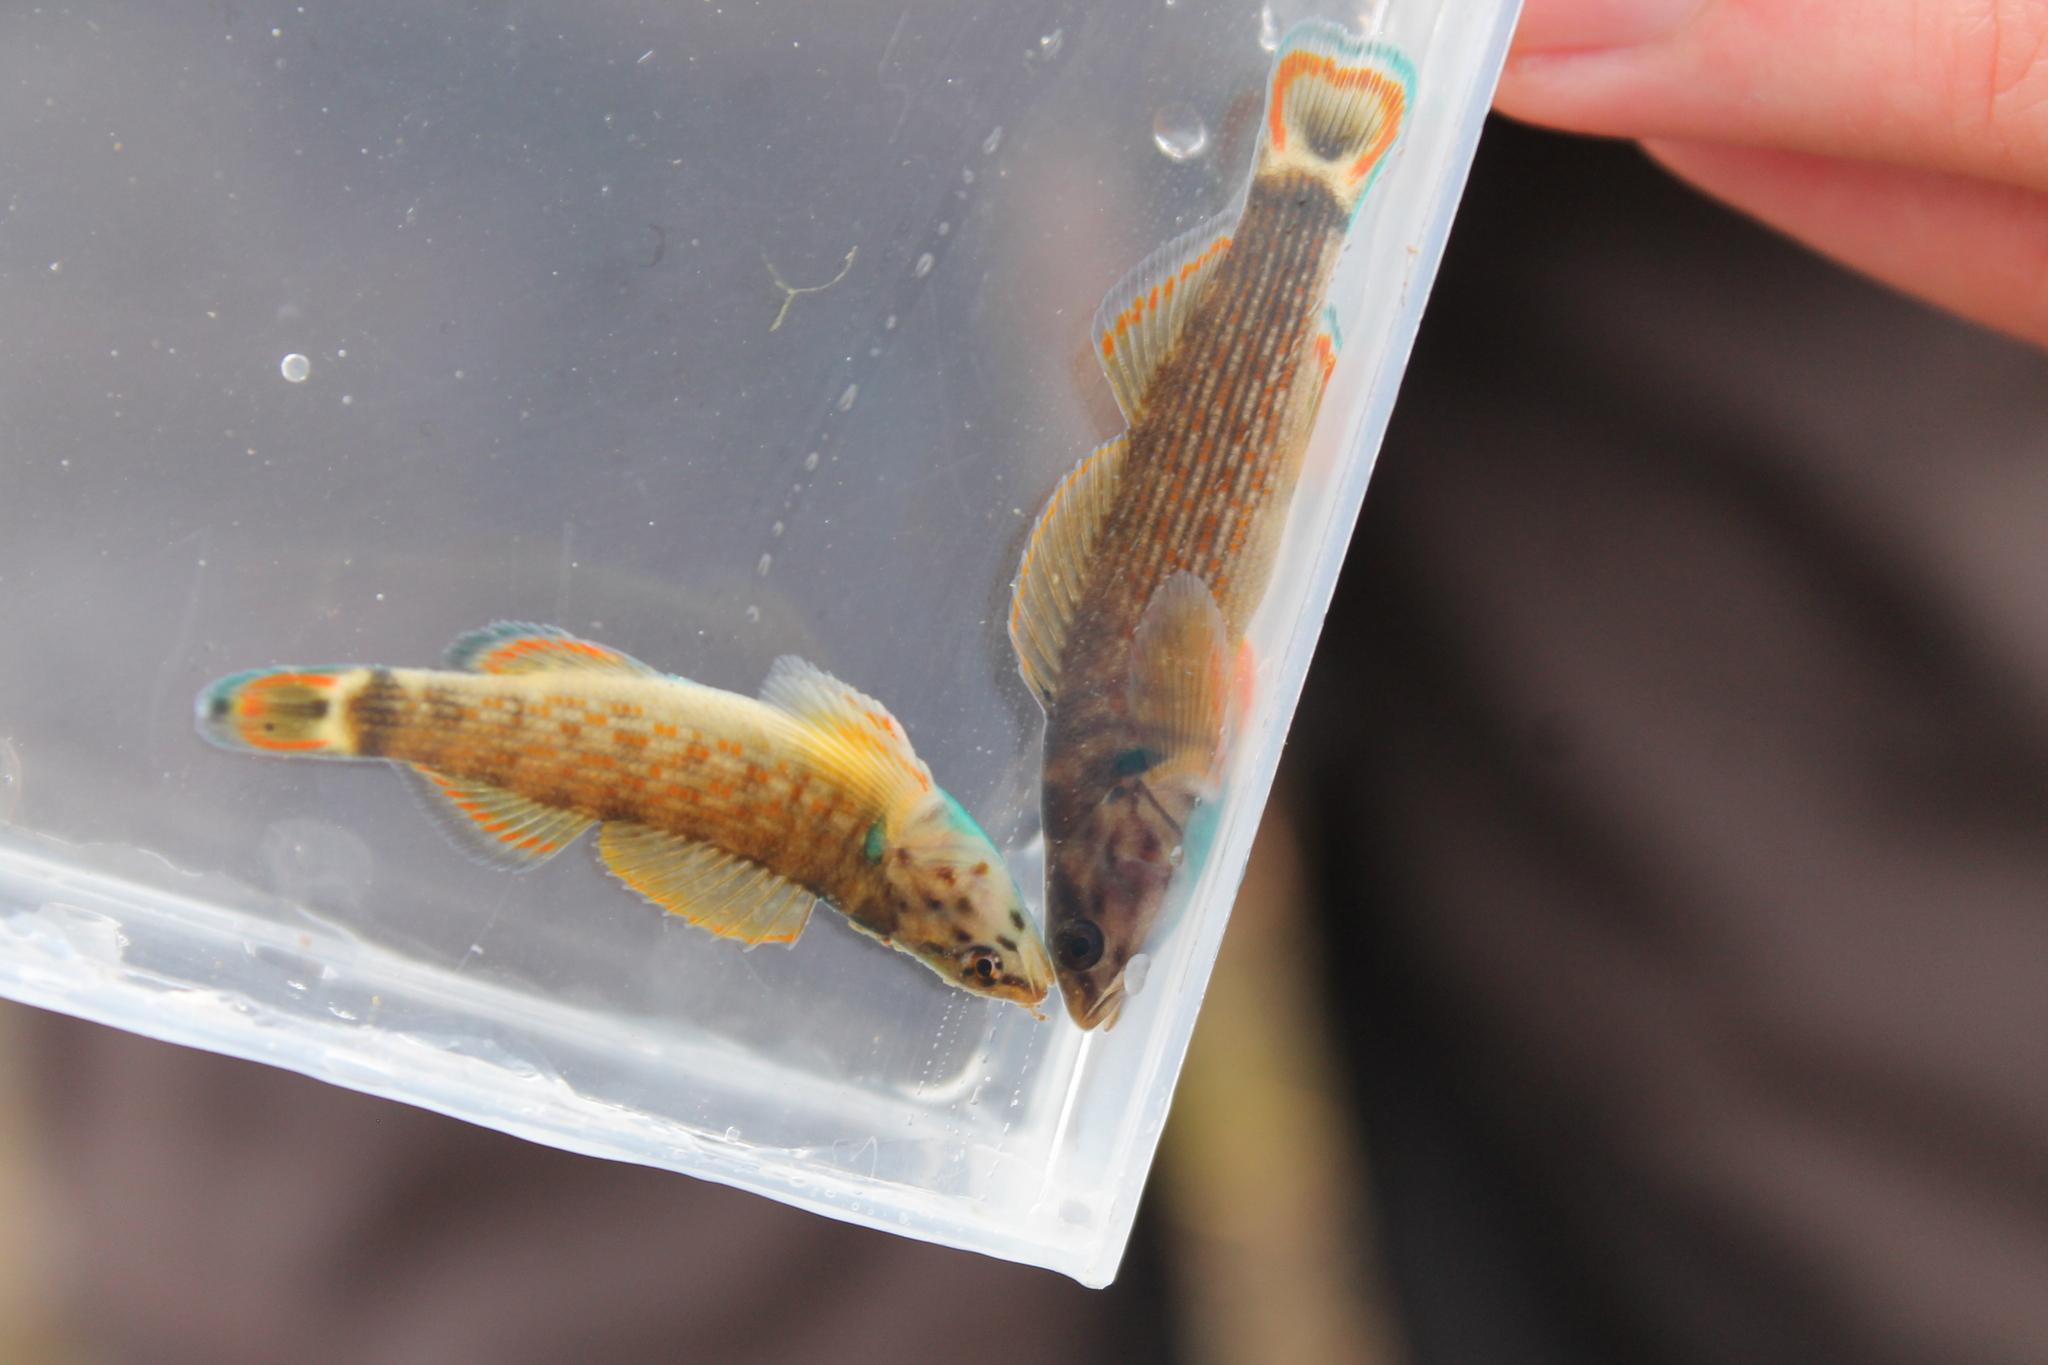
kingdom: Animalia
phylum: Chordata
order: Perciformes
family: Percidae
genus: Etheostoma
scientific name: Etheostoma rufilineatum
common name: Redline darter
